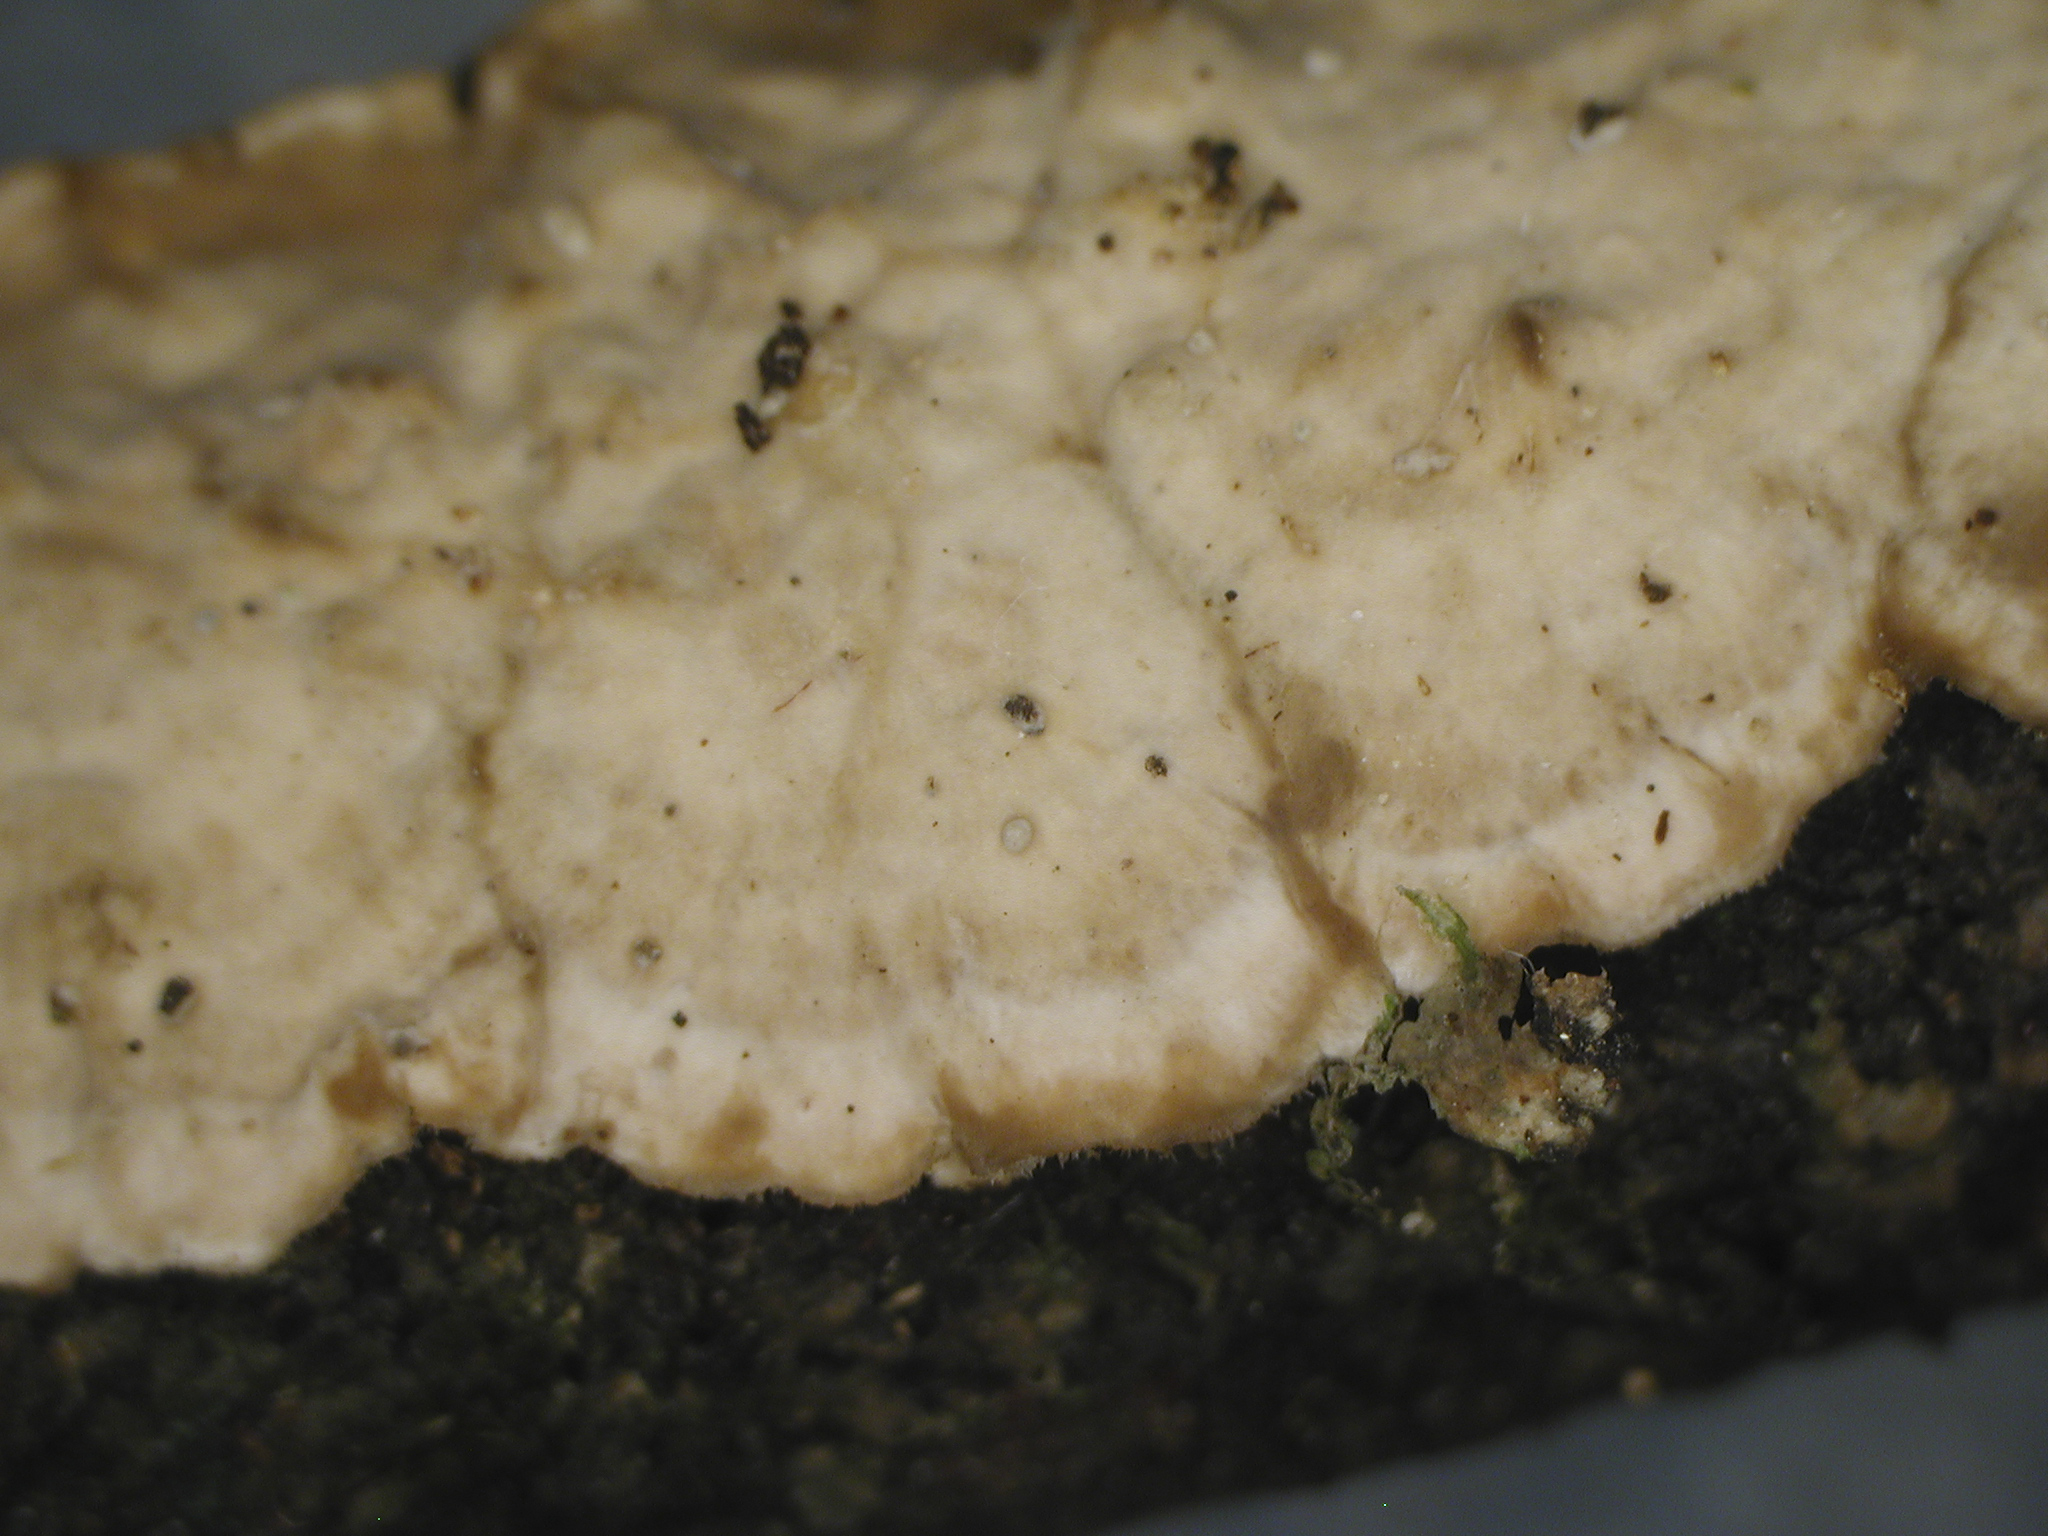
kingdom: Fungi
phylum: Basidiomycota
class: Agaricomycetes
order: Russulales
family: Stereaceae
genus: Stereum
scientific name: Stereum vellereum
